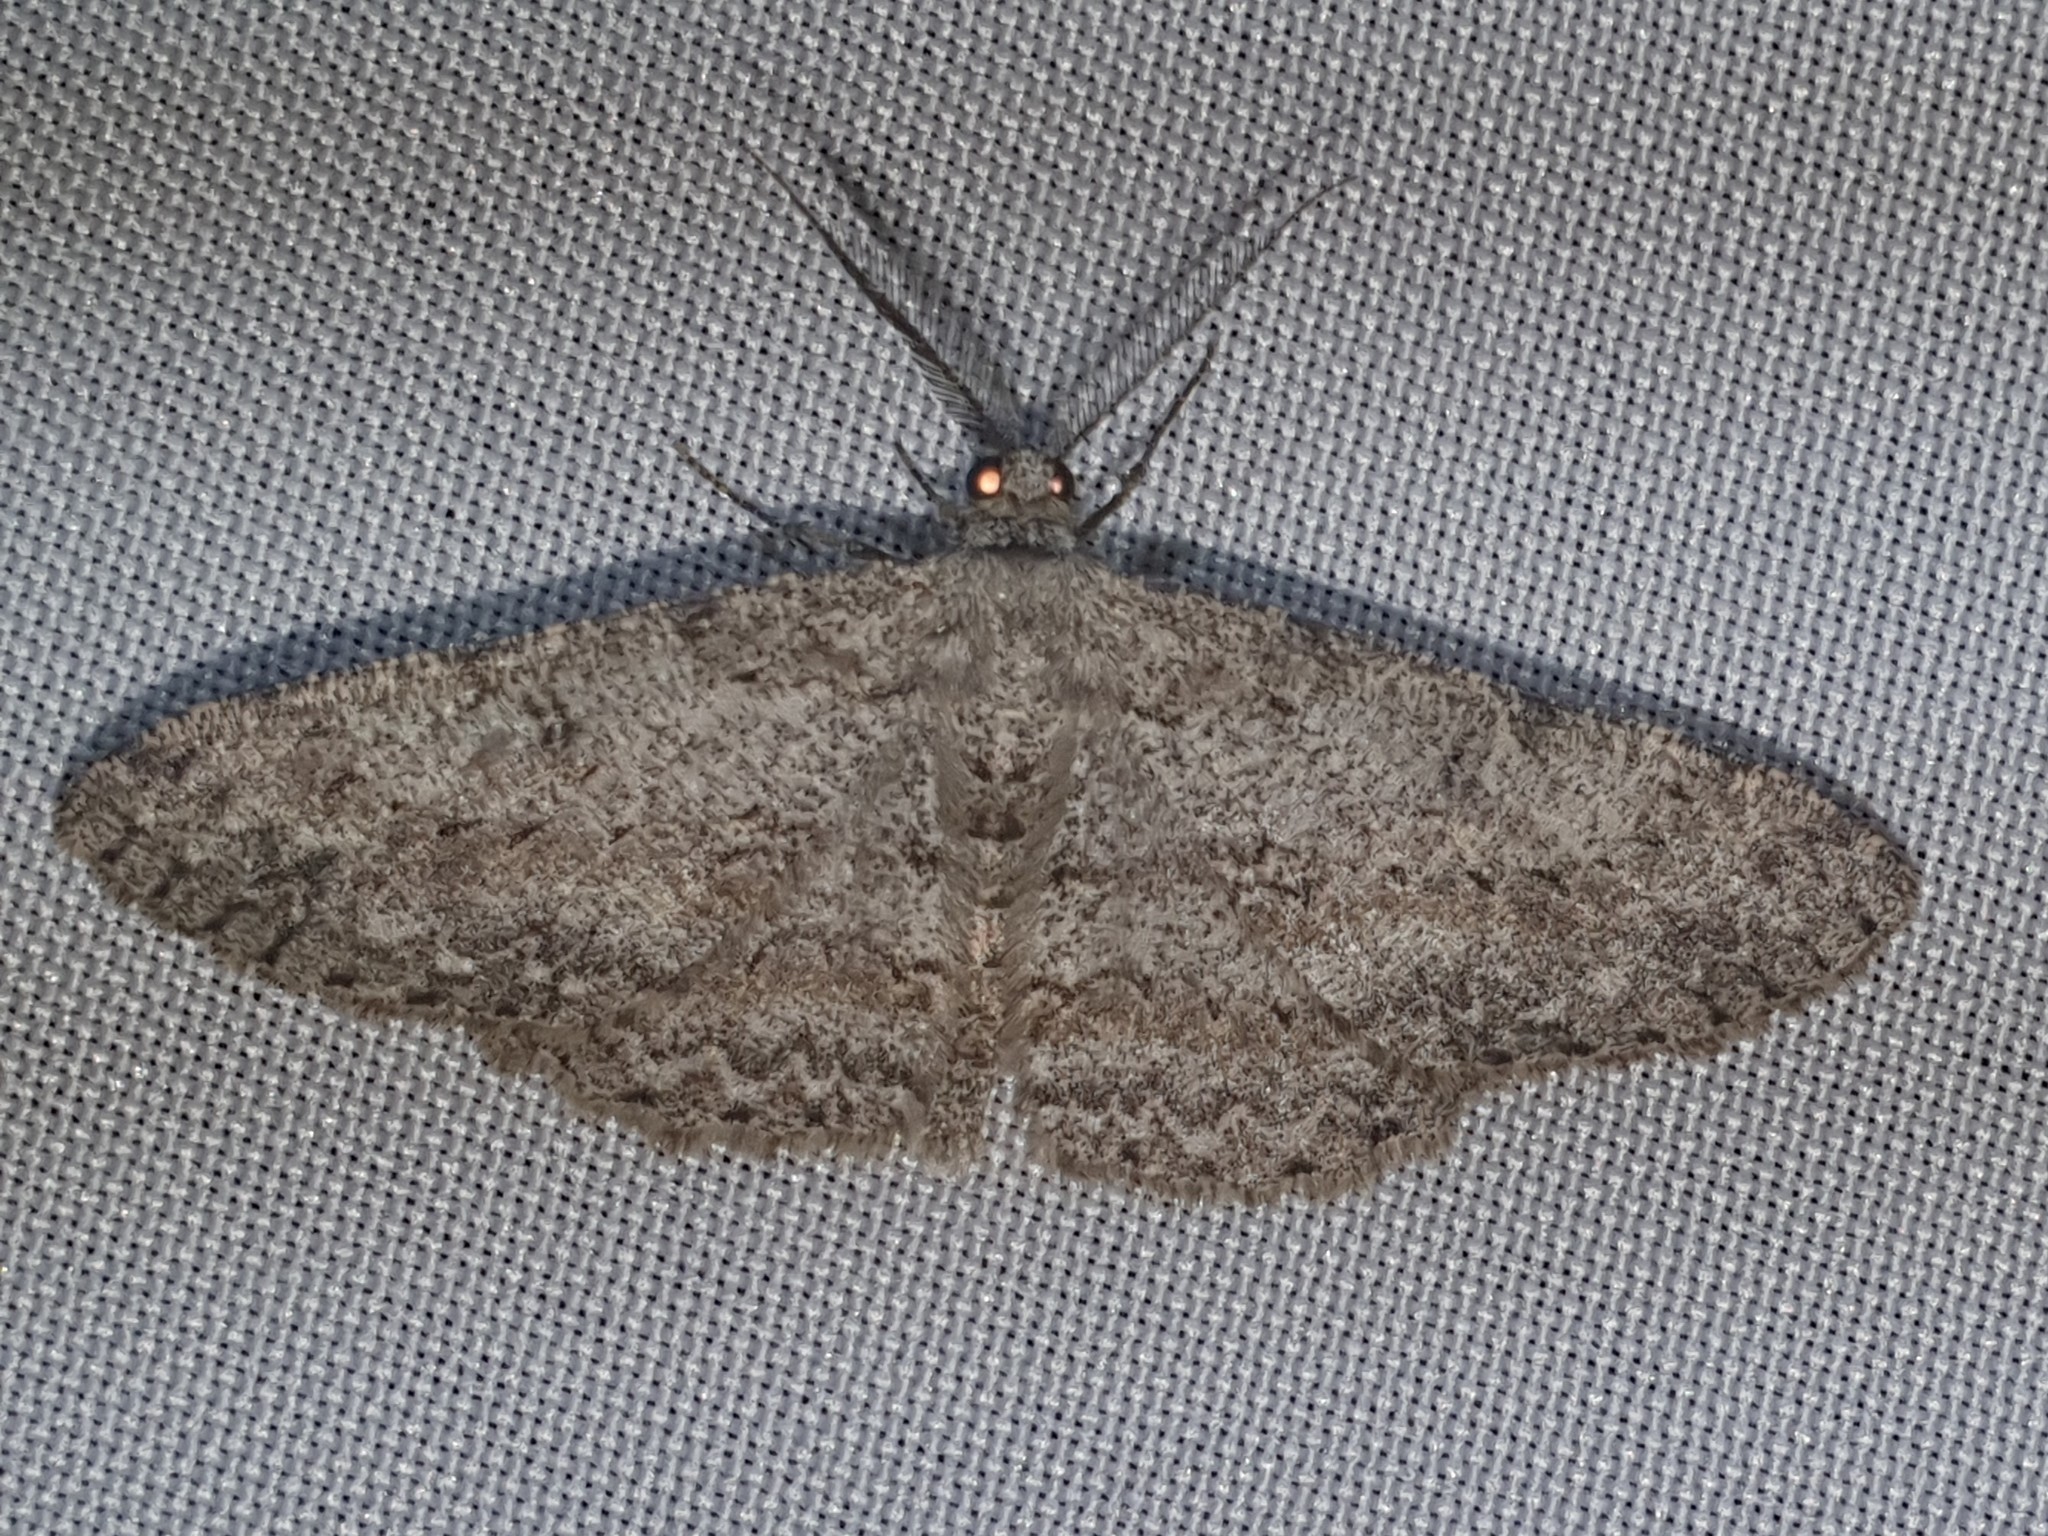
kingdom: Animalia
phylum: Arthropoda
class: Insecta
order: Lepidoptera
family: Geometridae
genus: Hypomecis
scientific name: Hypomecis punctinalis
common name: Pale oak beauty
